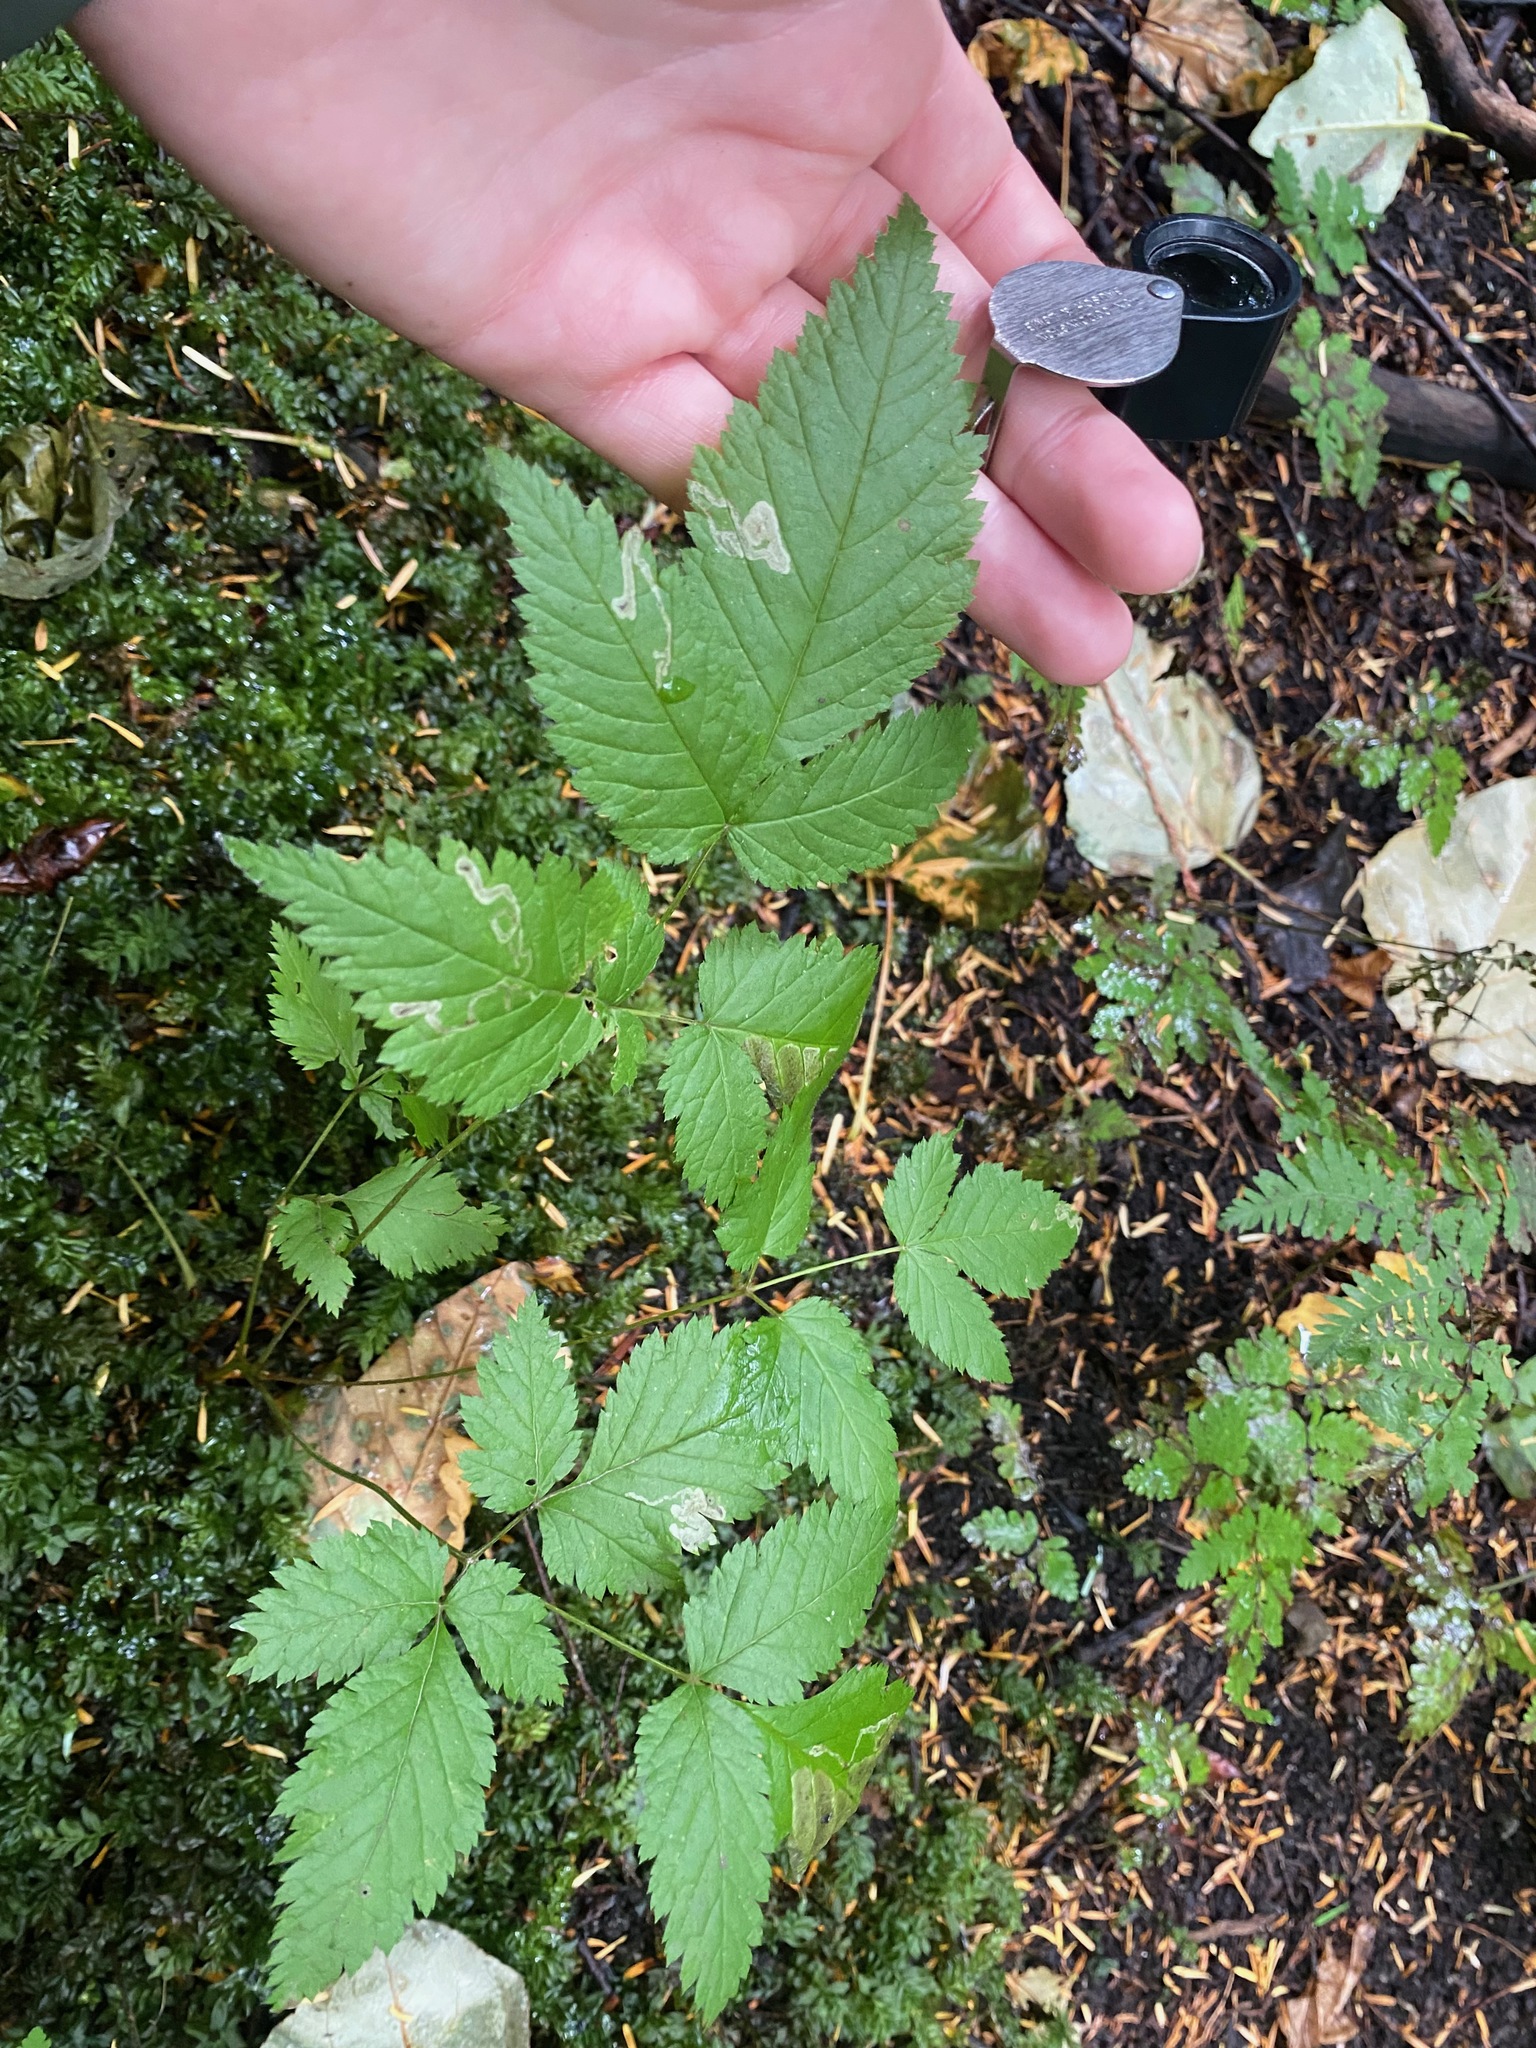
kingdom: Plantae
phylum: Tracheophyta
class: Magnoliopsida
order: Rosales
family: Rosaceae
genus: Aruncus
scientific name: Aruncus dioicus
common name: Buck's-beard
